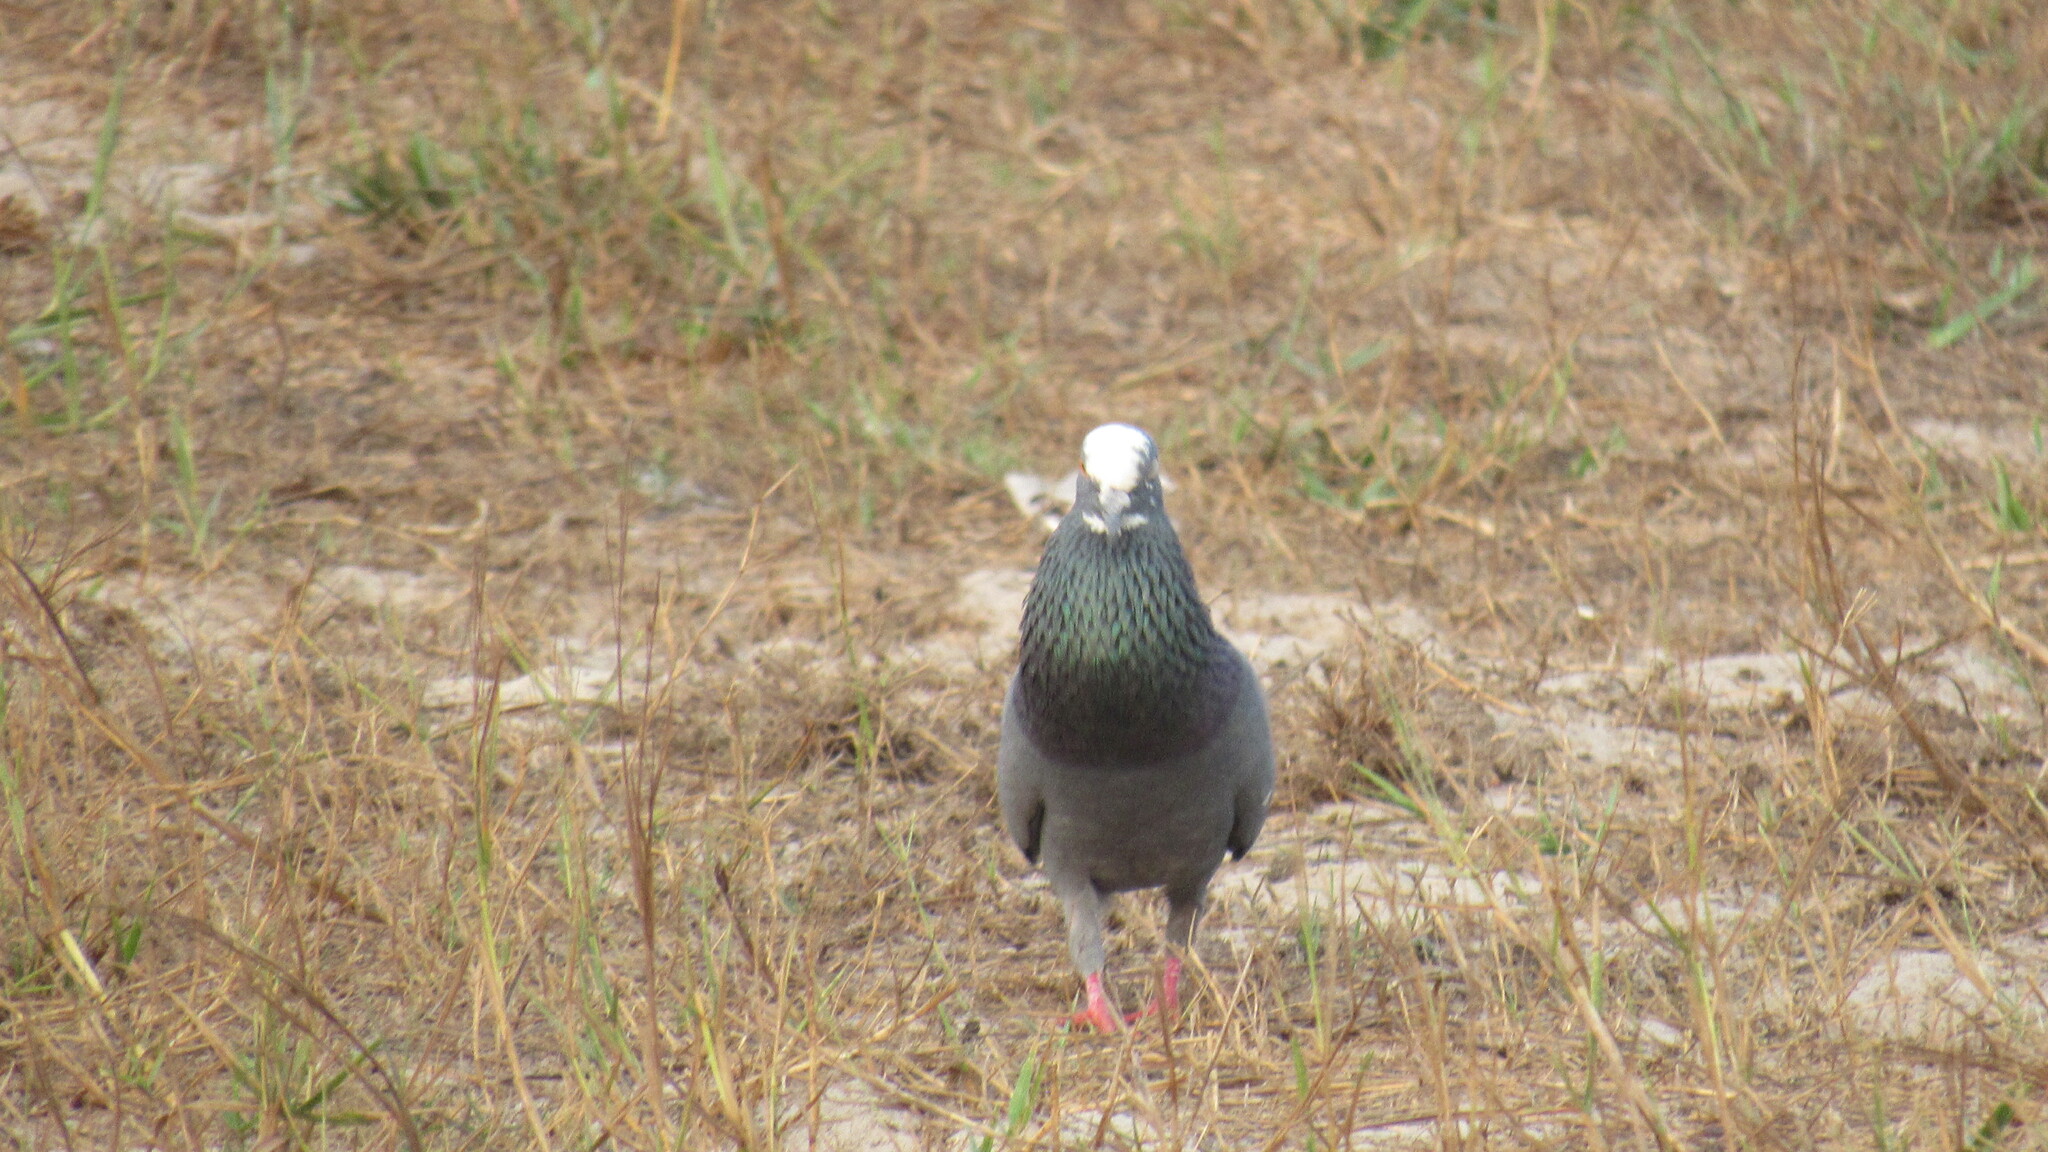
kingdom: Animalia
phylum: Chordata
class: Aves
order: Columbiformes
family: Columbidae
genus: Columba
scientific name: Columba livia
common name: Rock pigeon
